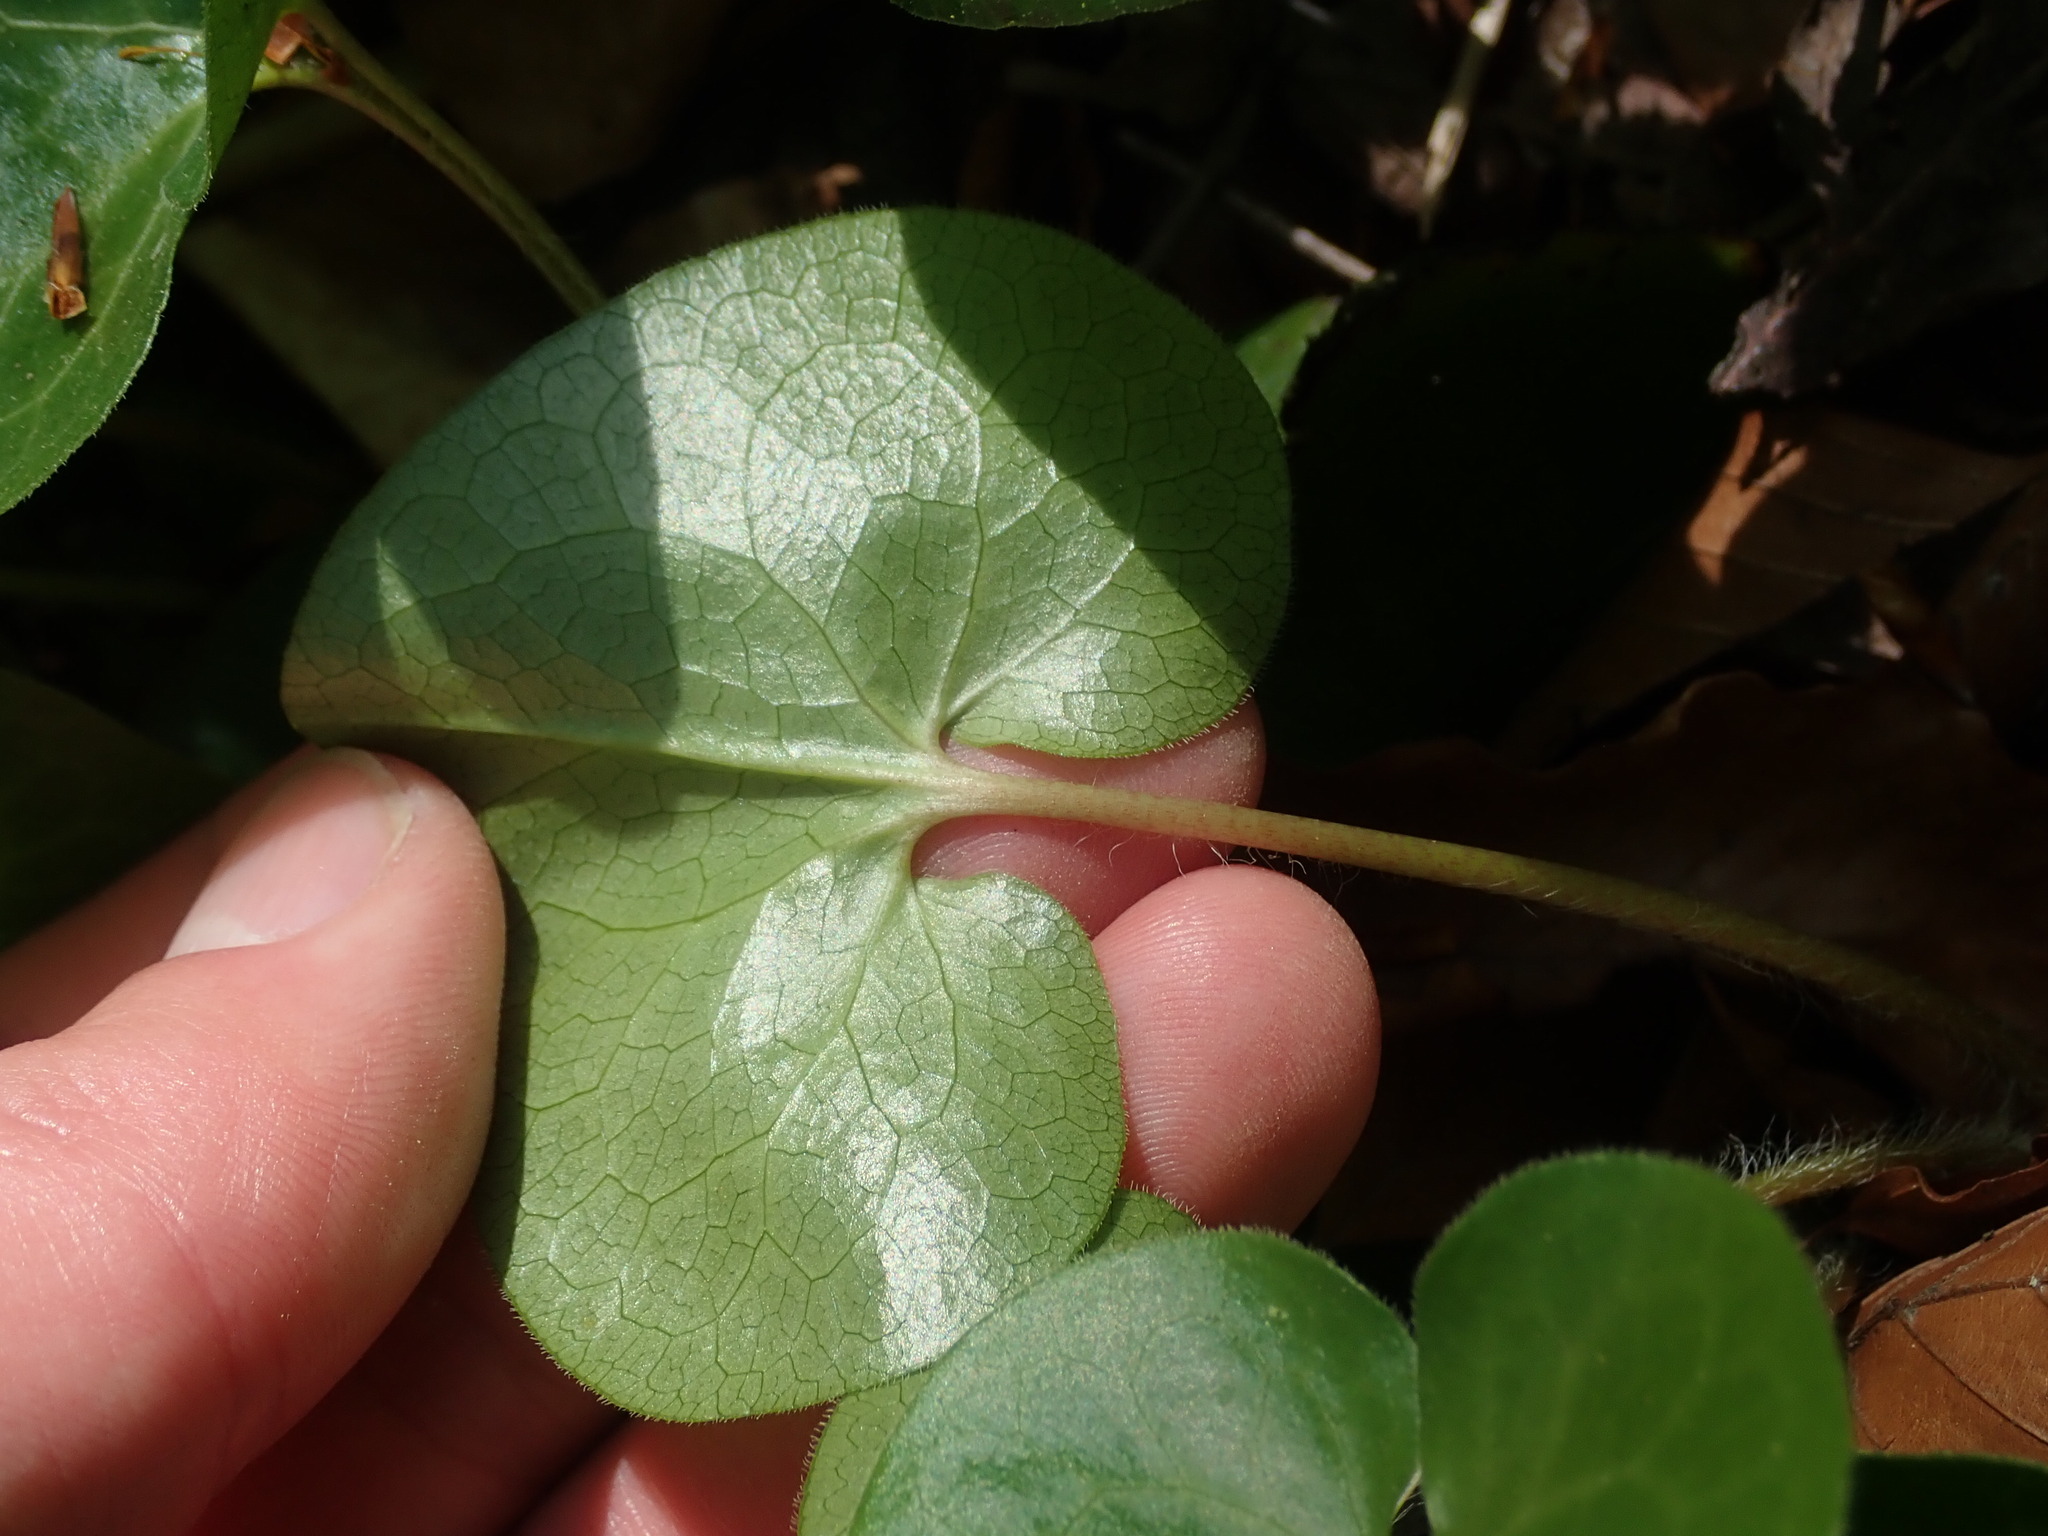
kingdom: Plantae
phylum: Tracheophyta
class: Magnoliopsida
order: Piperales
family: Aristolochiaceae
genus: Asarum
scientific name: Asarum europaeum
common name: Asarabacca
